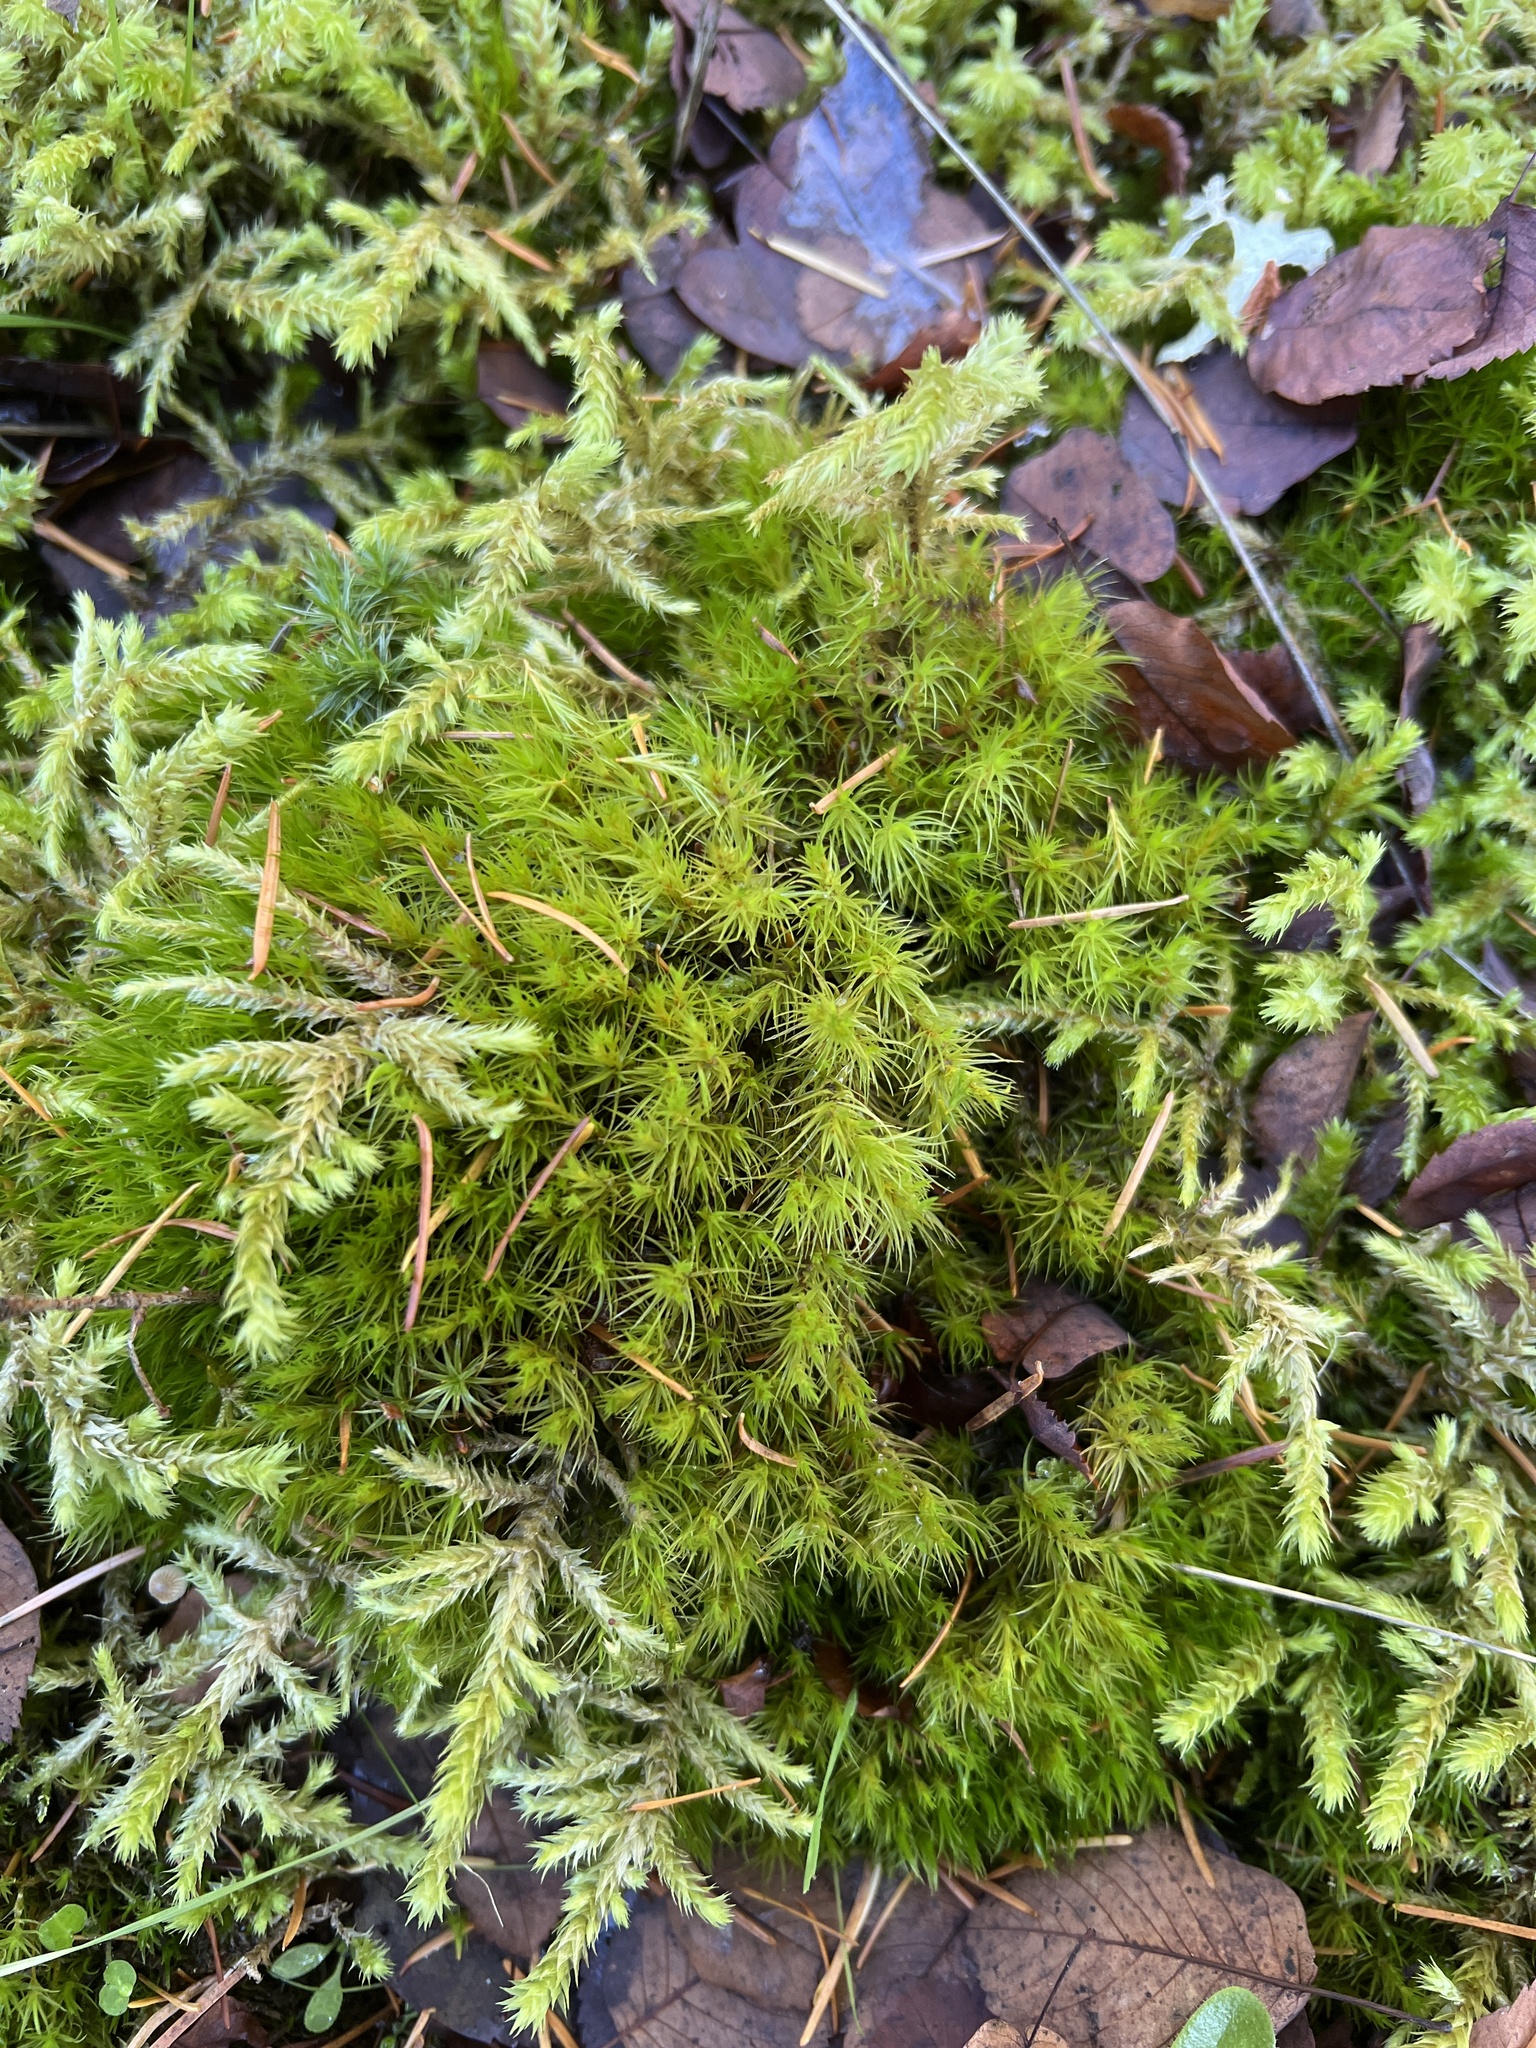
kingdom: Plantae
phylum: Bryophyta
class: Bryopsida
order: Hypnales
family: Hylocomiaceae
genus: Hylocomiadelphus
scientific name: Hylocomiadelphus triquetrus
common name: Rough goose neck moss
